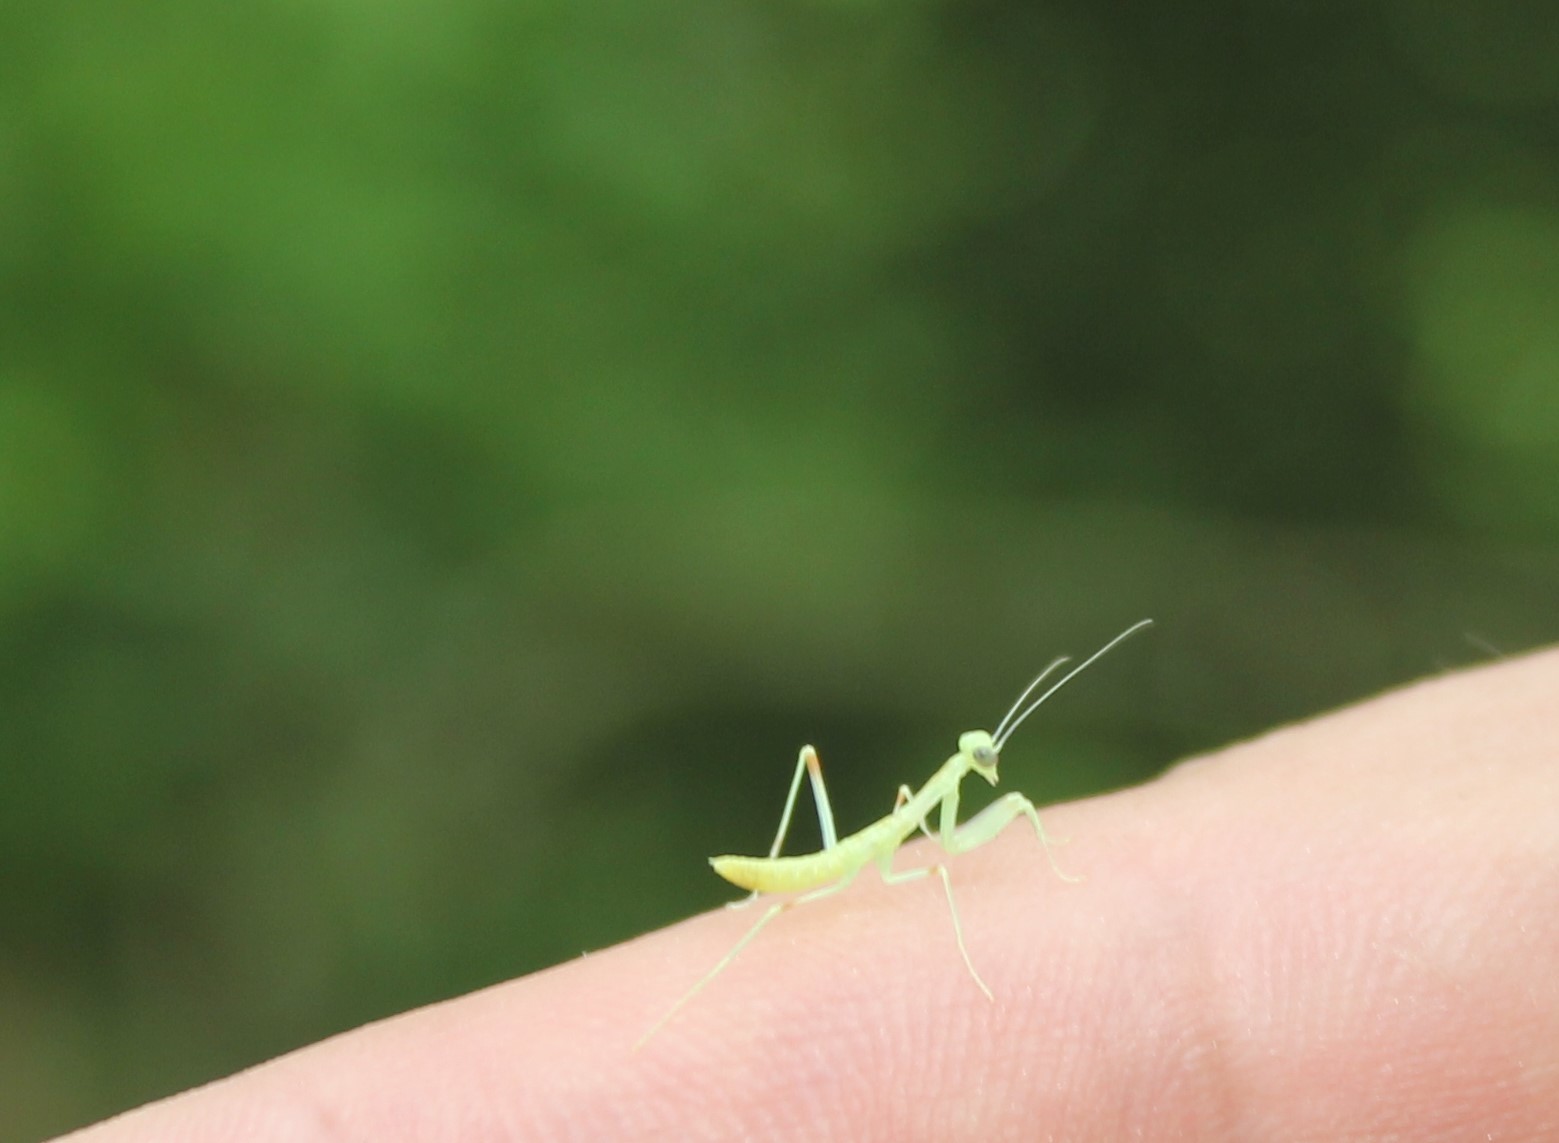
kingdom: Animalia
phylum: Arthropoda
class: Insecta
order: Mantodea
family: Mantidae
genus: Hierodula
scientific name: Hierodula transcaucasica
